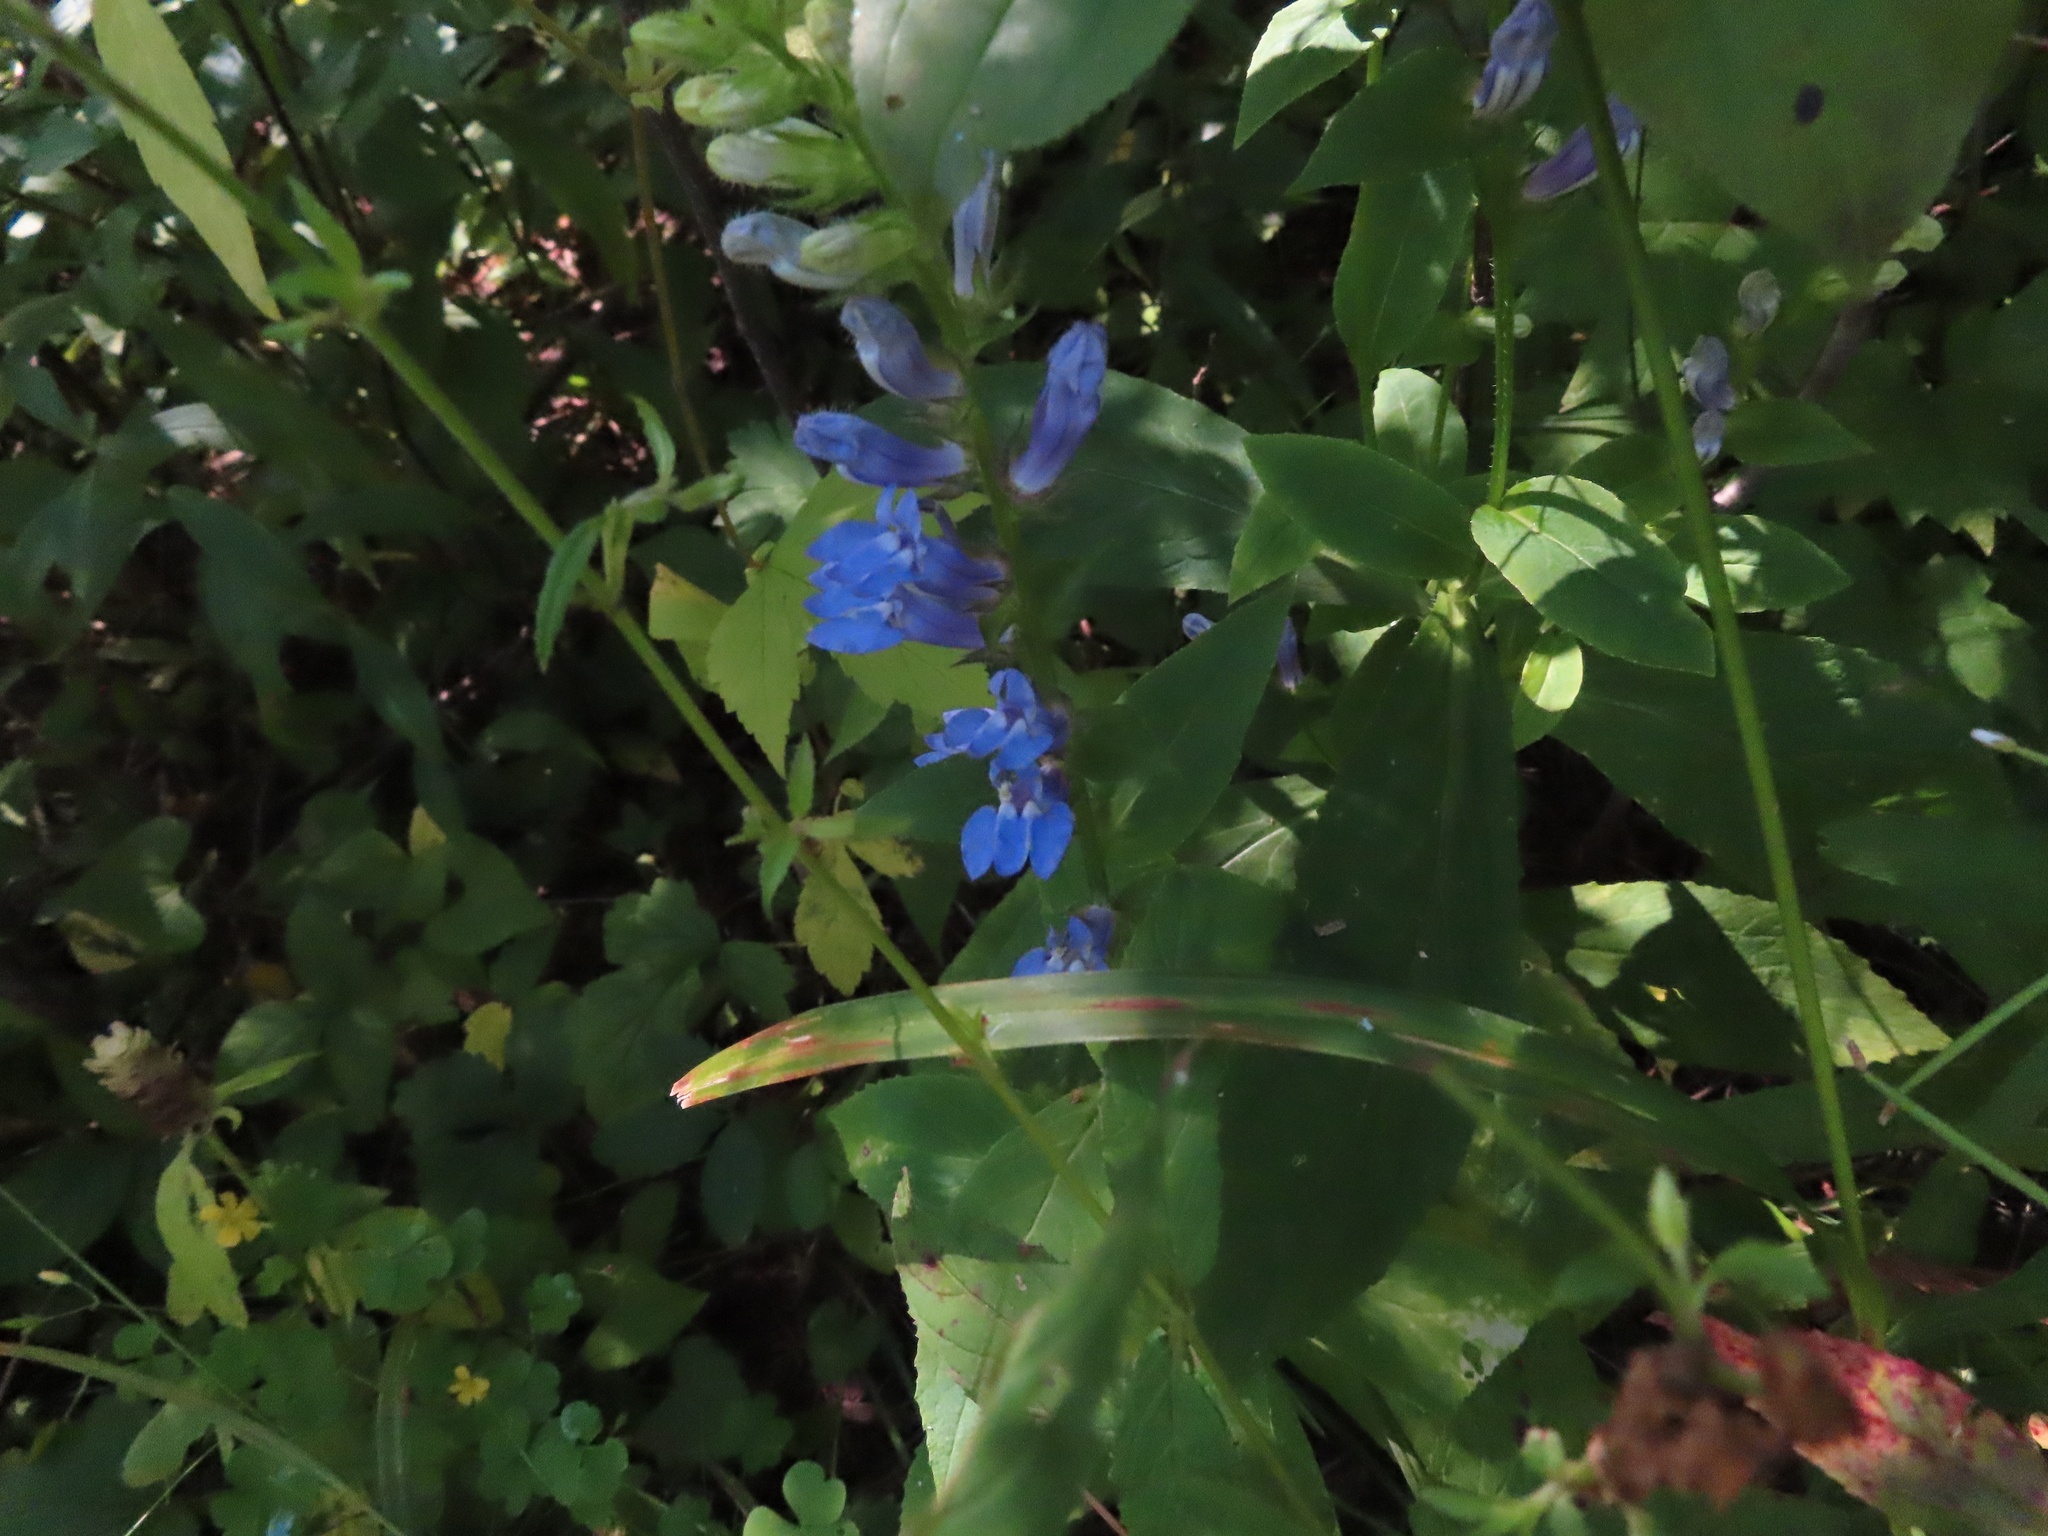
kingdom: Plantae
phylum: Tracheophyta
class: Magnoliopsida
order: Asterales
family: Campanulaceae
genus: Lobelia
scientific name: Lobelia siphilitica
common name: Great lobelia
